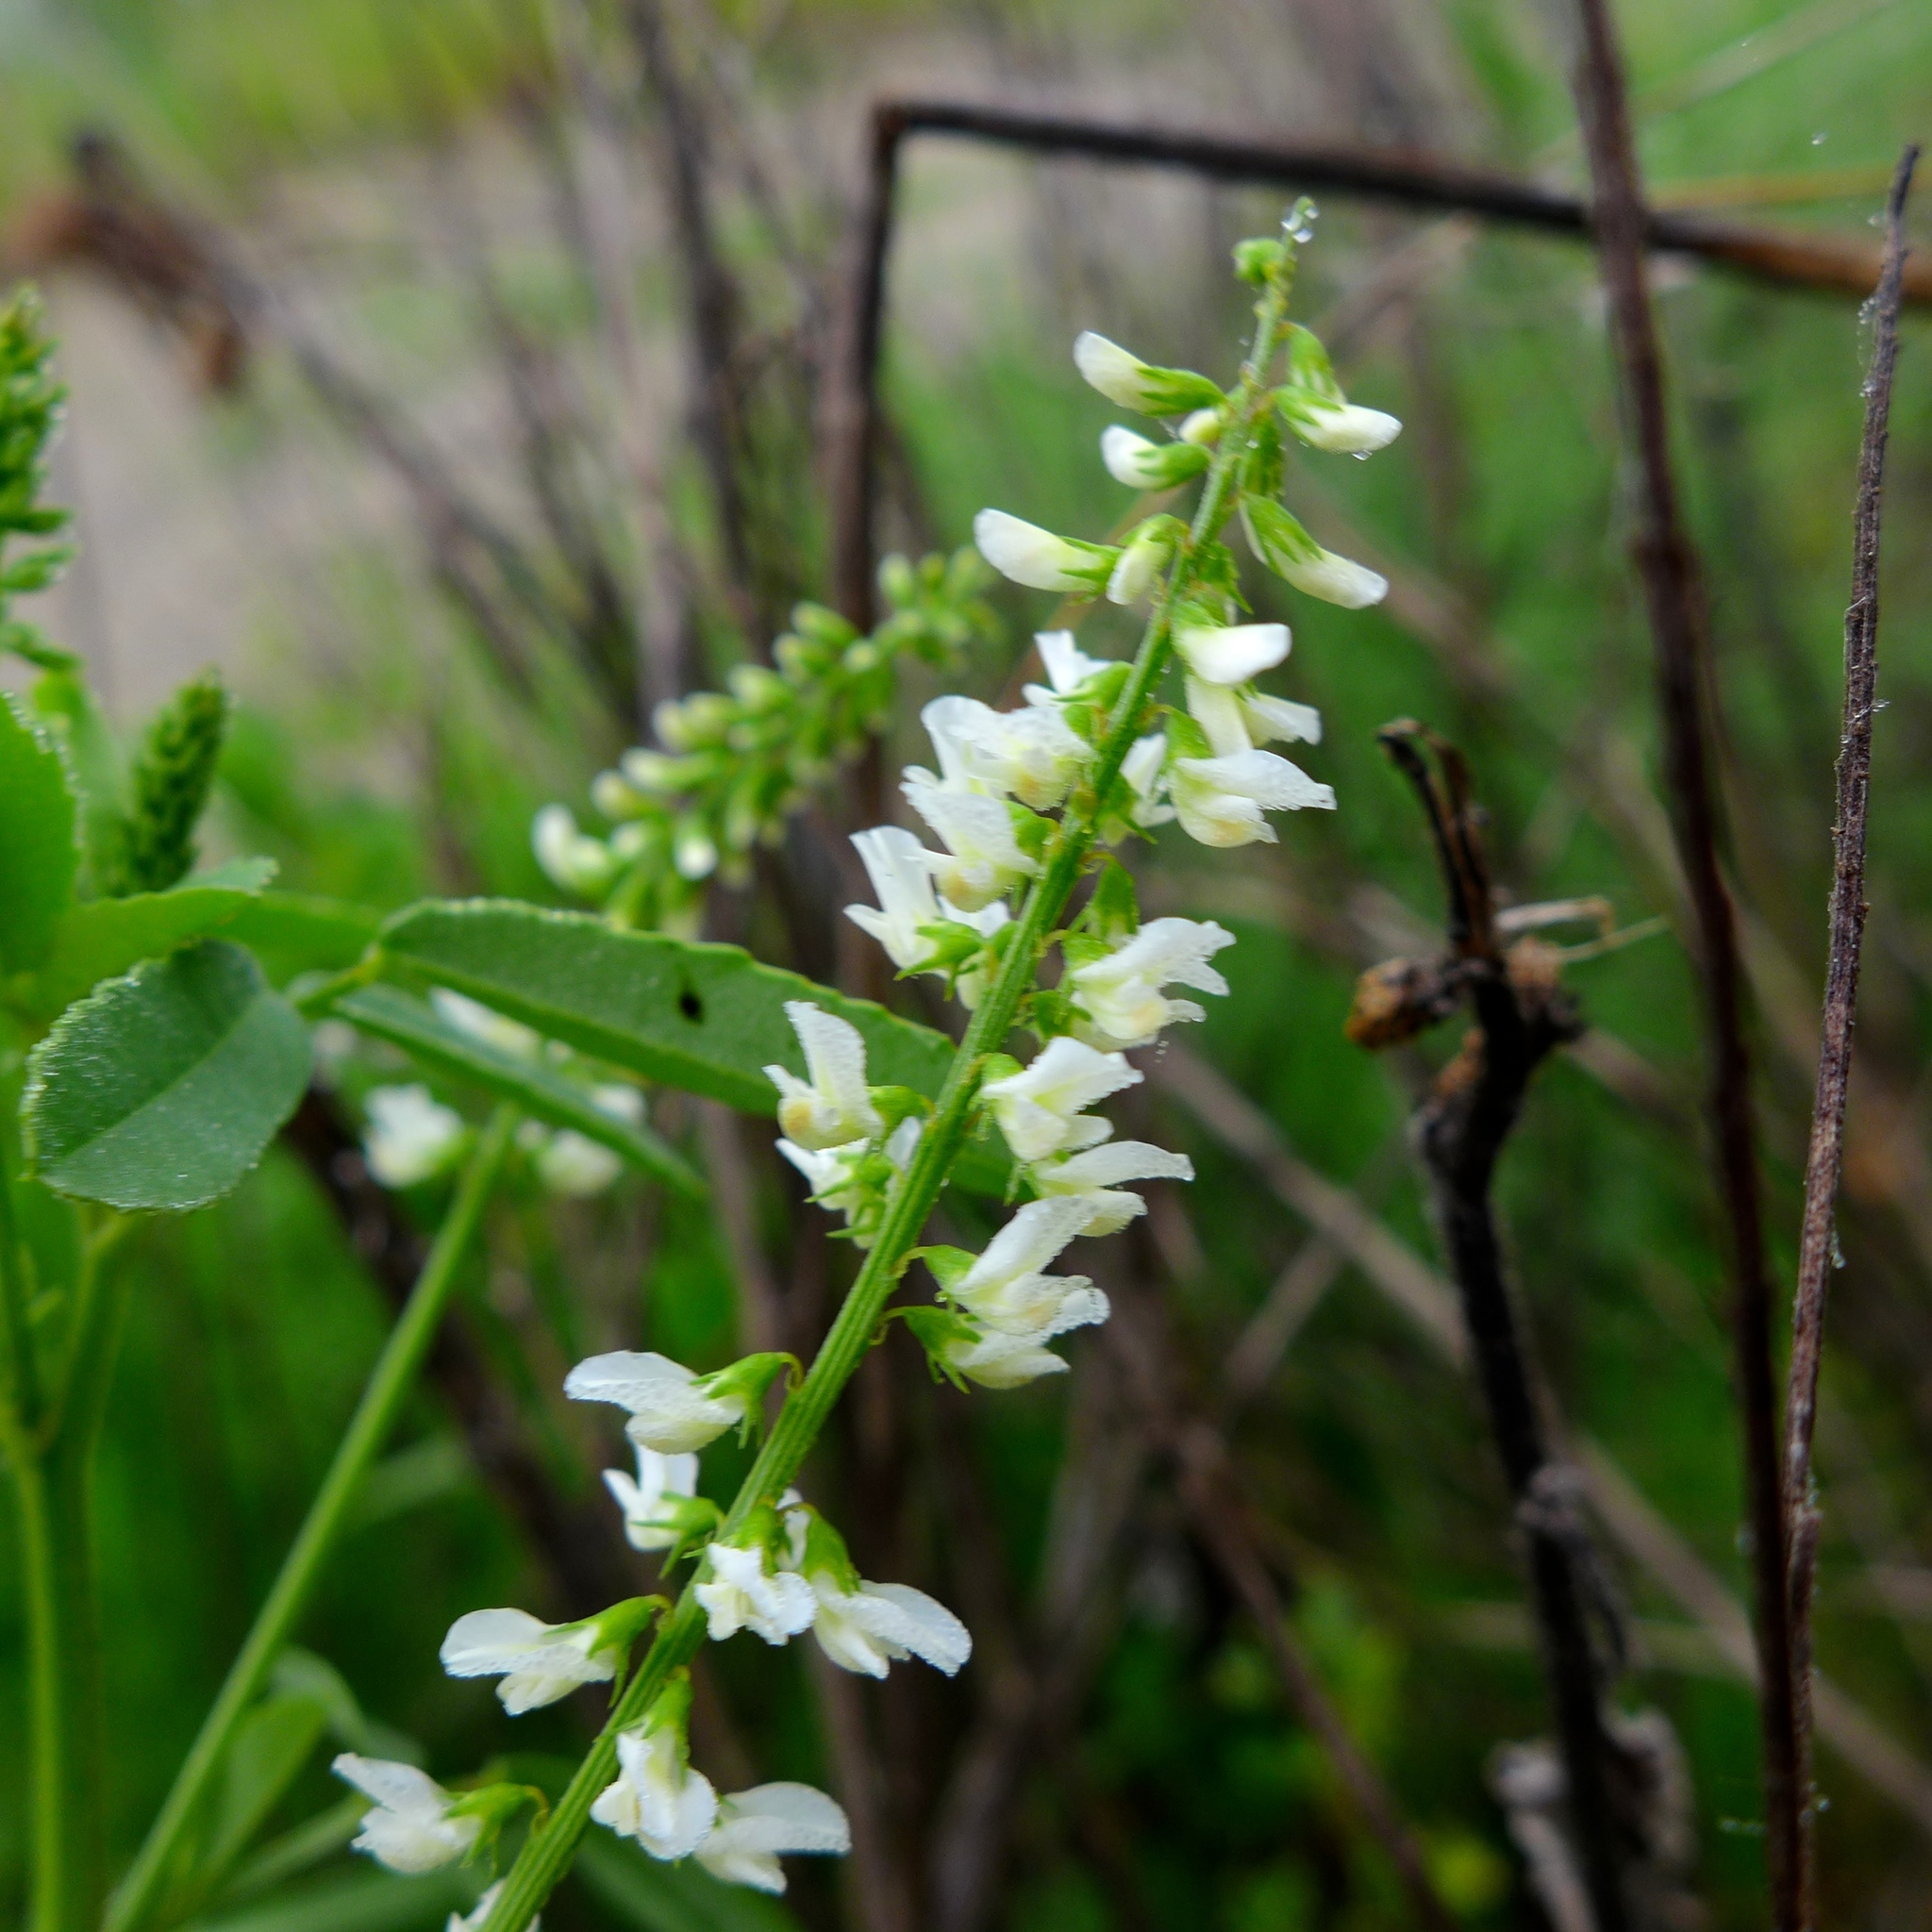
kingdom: Plantae
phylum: Tracheophyta
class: Magnoliopsida
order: Fabales
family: Fabaceae
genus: Melilotus
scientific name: Melilotus albus
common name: White melilot
